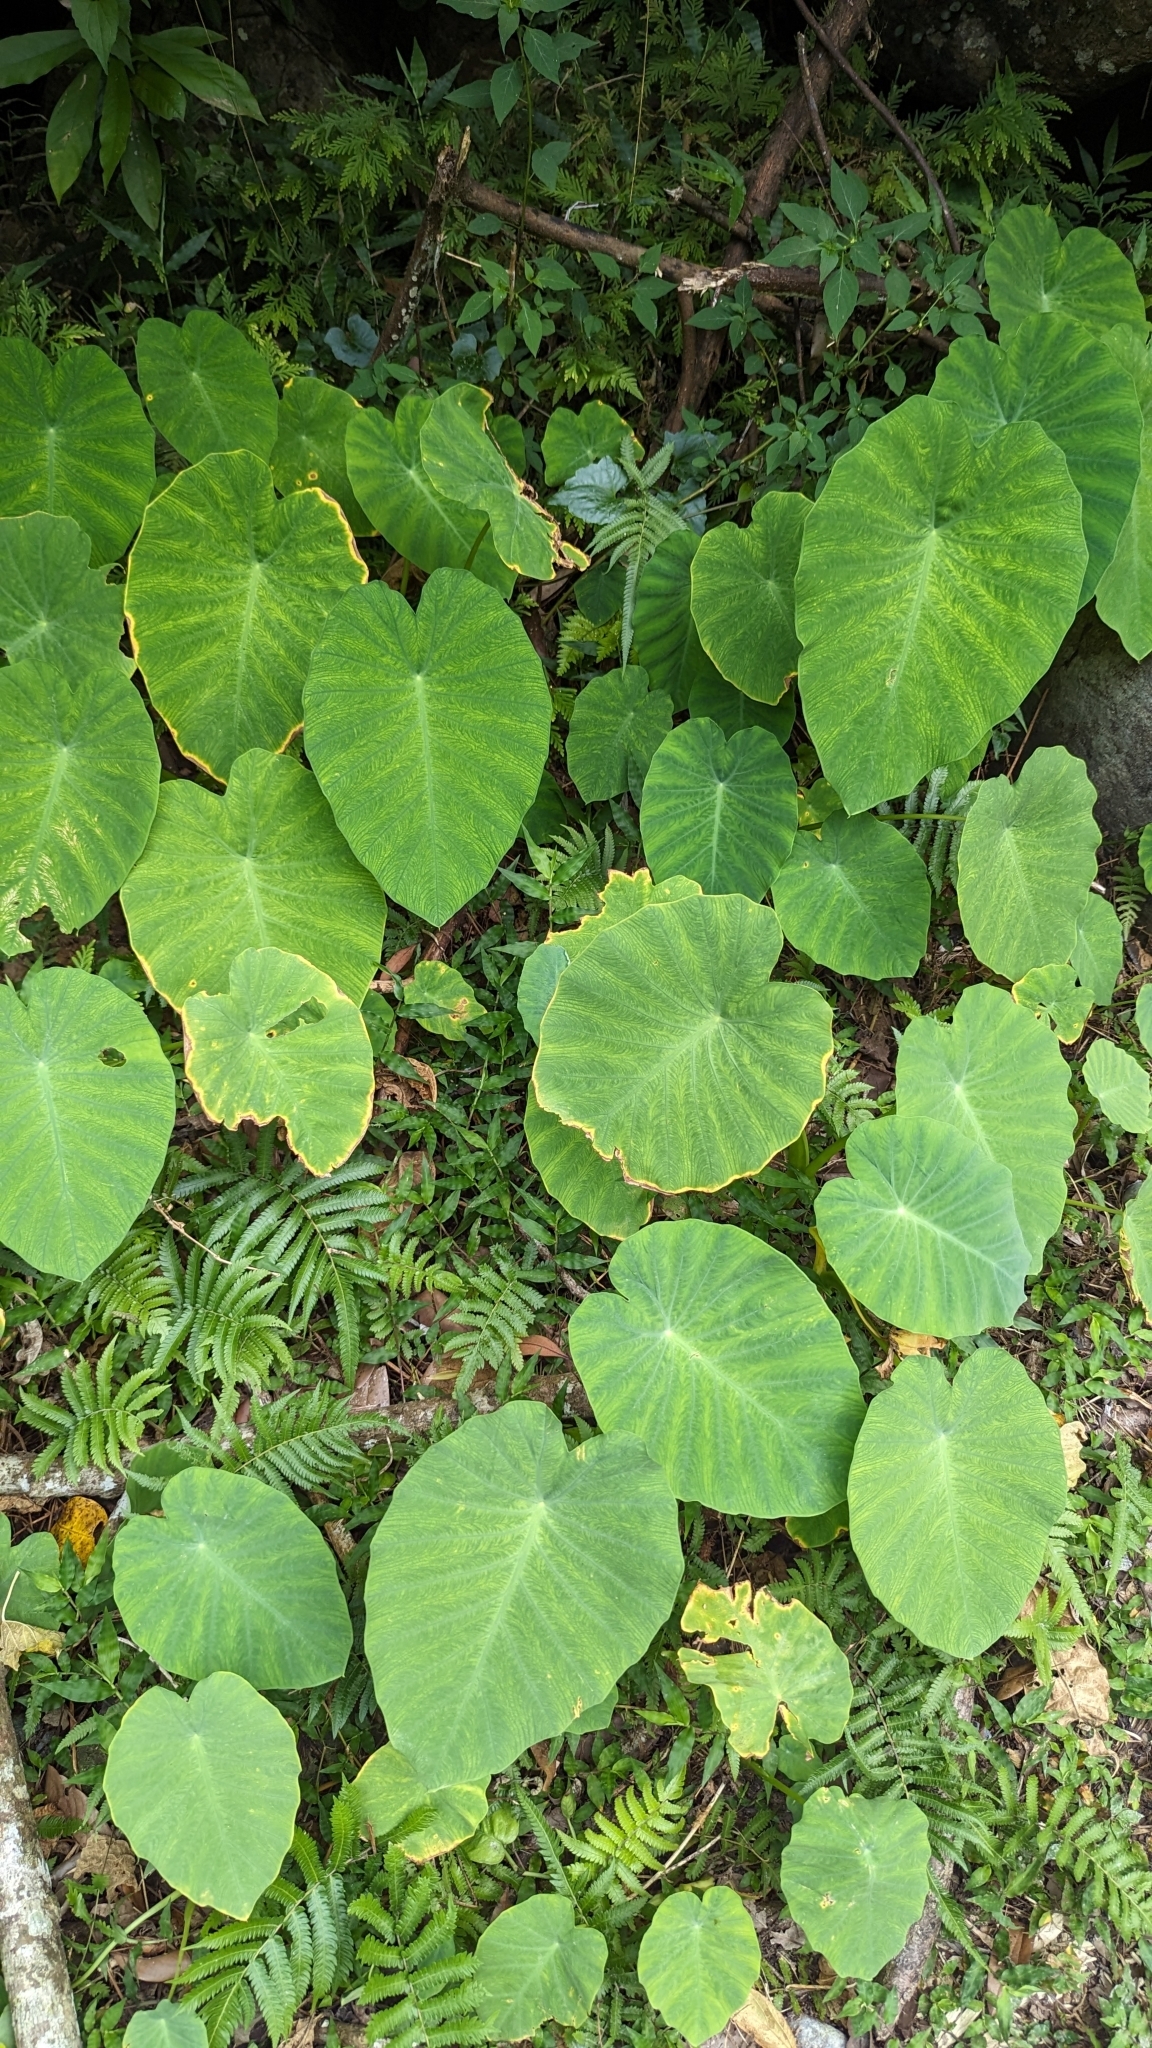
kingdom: Plantae
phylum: Tracheophyta
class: Liliopsida
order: Alismatales
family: Araceae
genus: Colocasia
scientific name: Colocasia esculenta
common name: Taro
